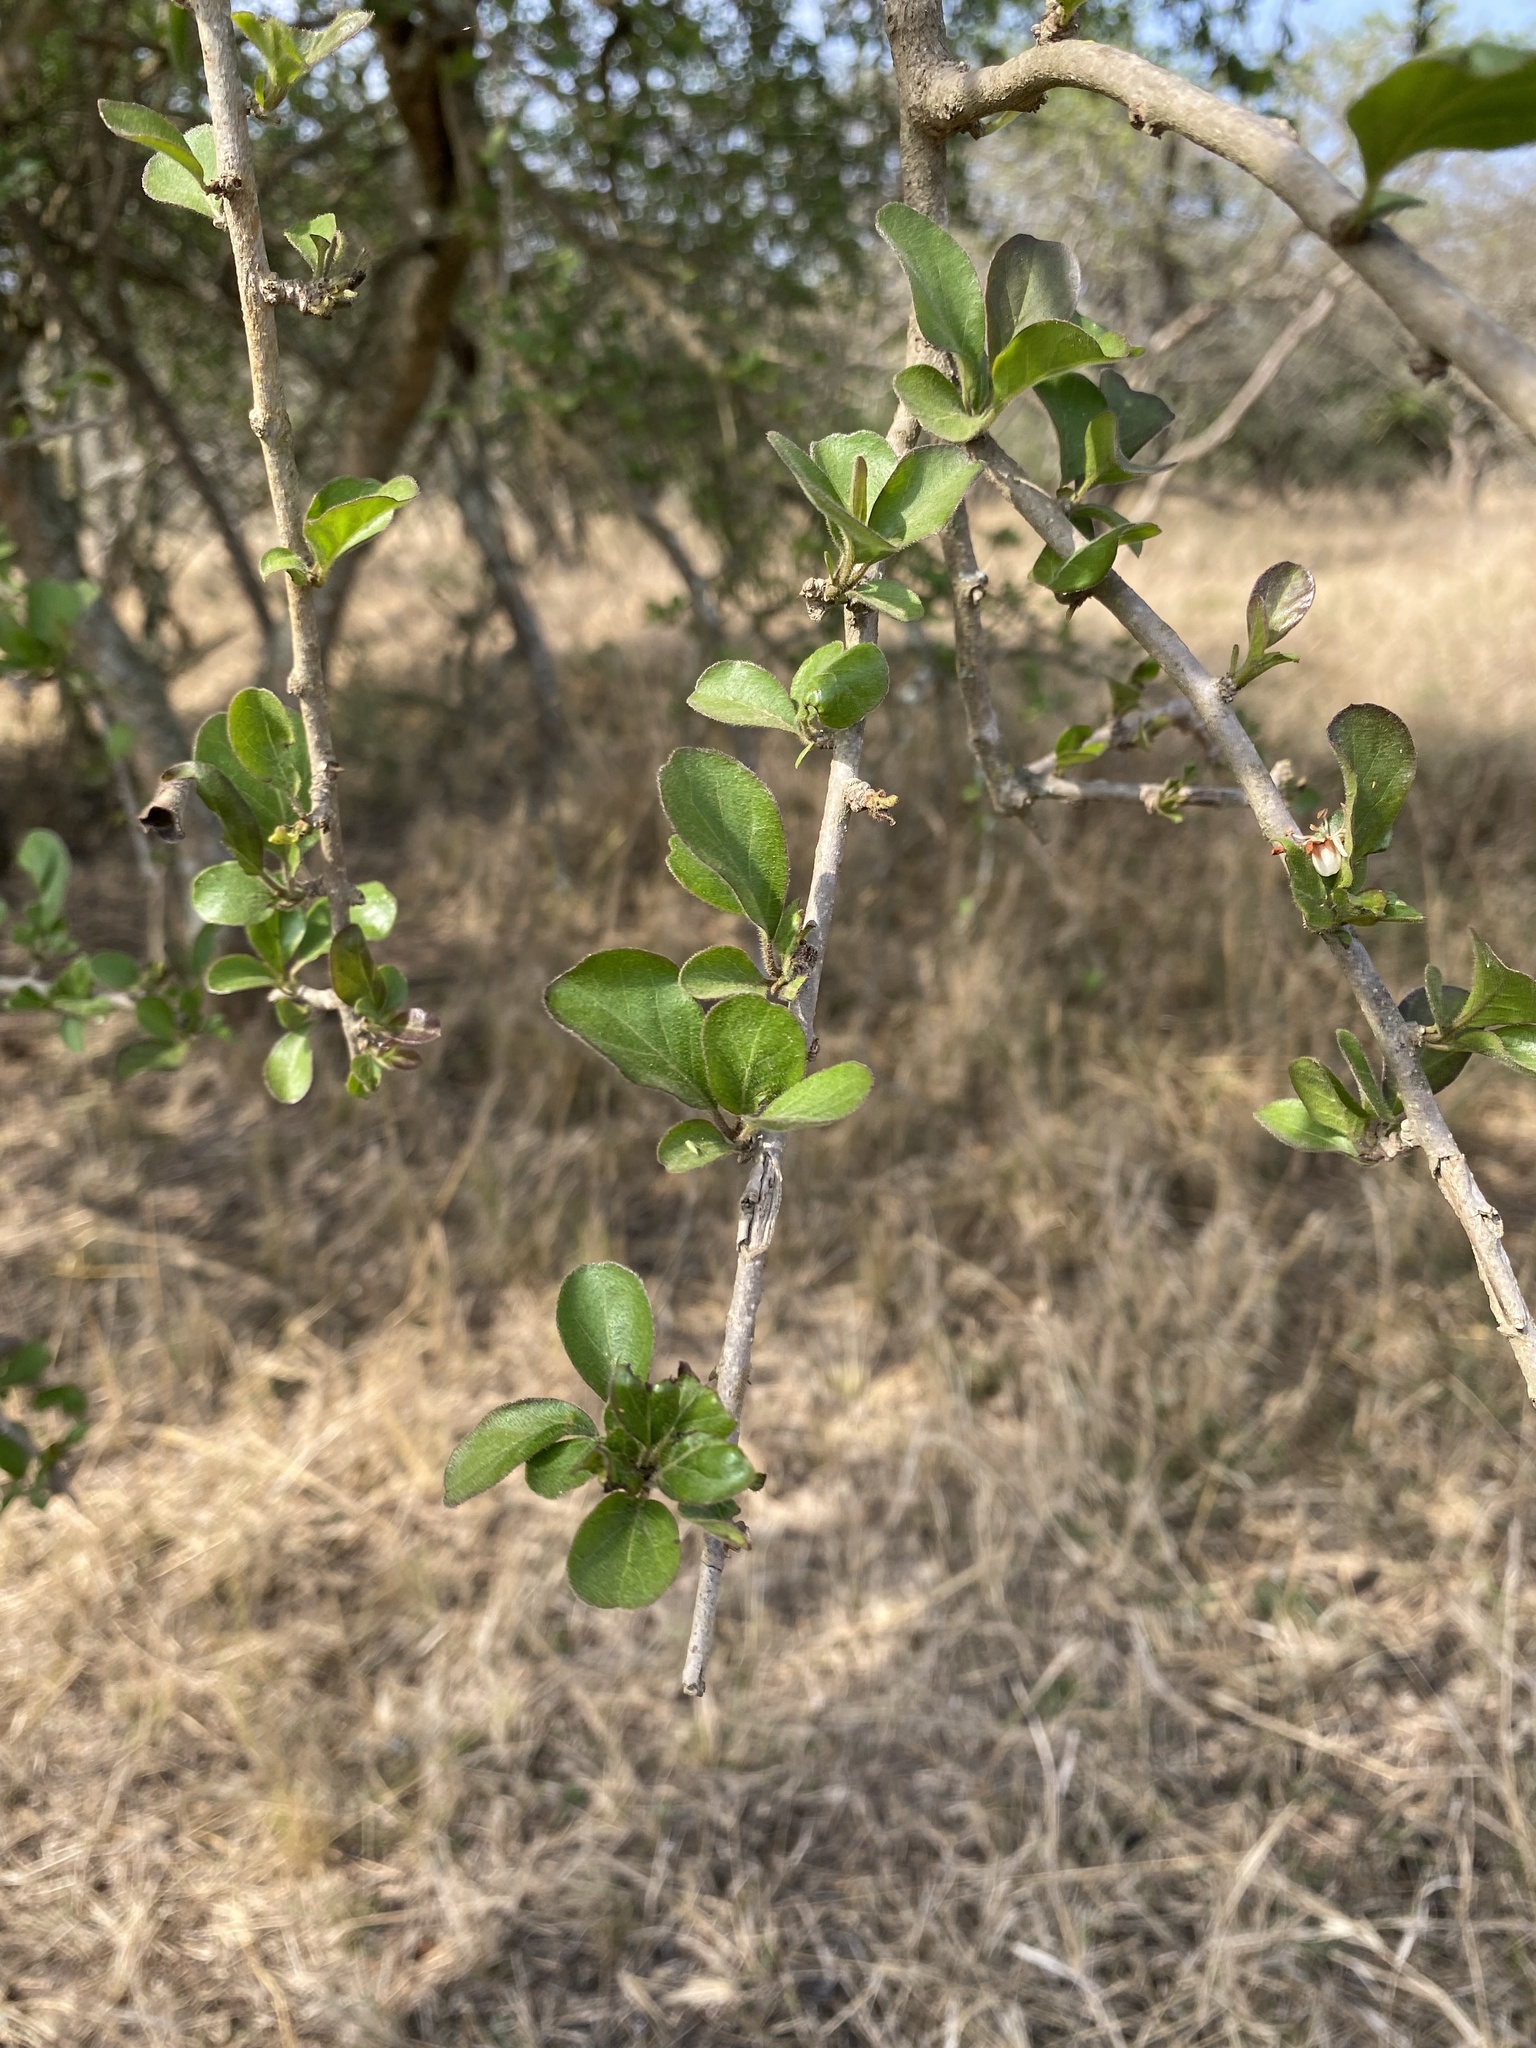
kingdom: Plantae
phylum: Tracheophyta
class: Magnoliopsida
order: Boraginales
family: Ehretiaceae
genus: Ehretia
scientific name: Ehretia rigida
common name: Cape lilac
